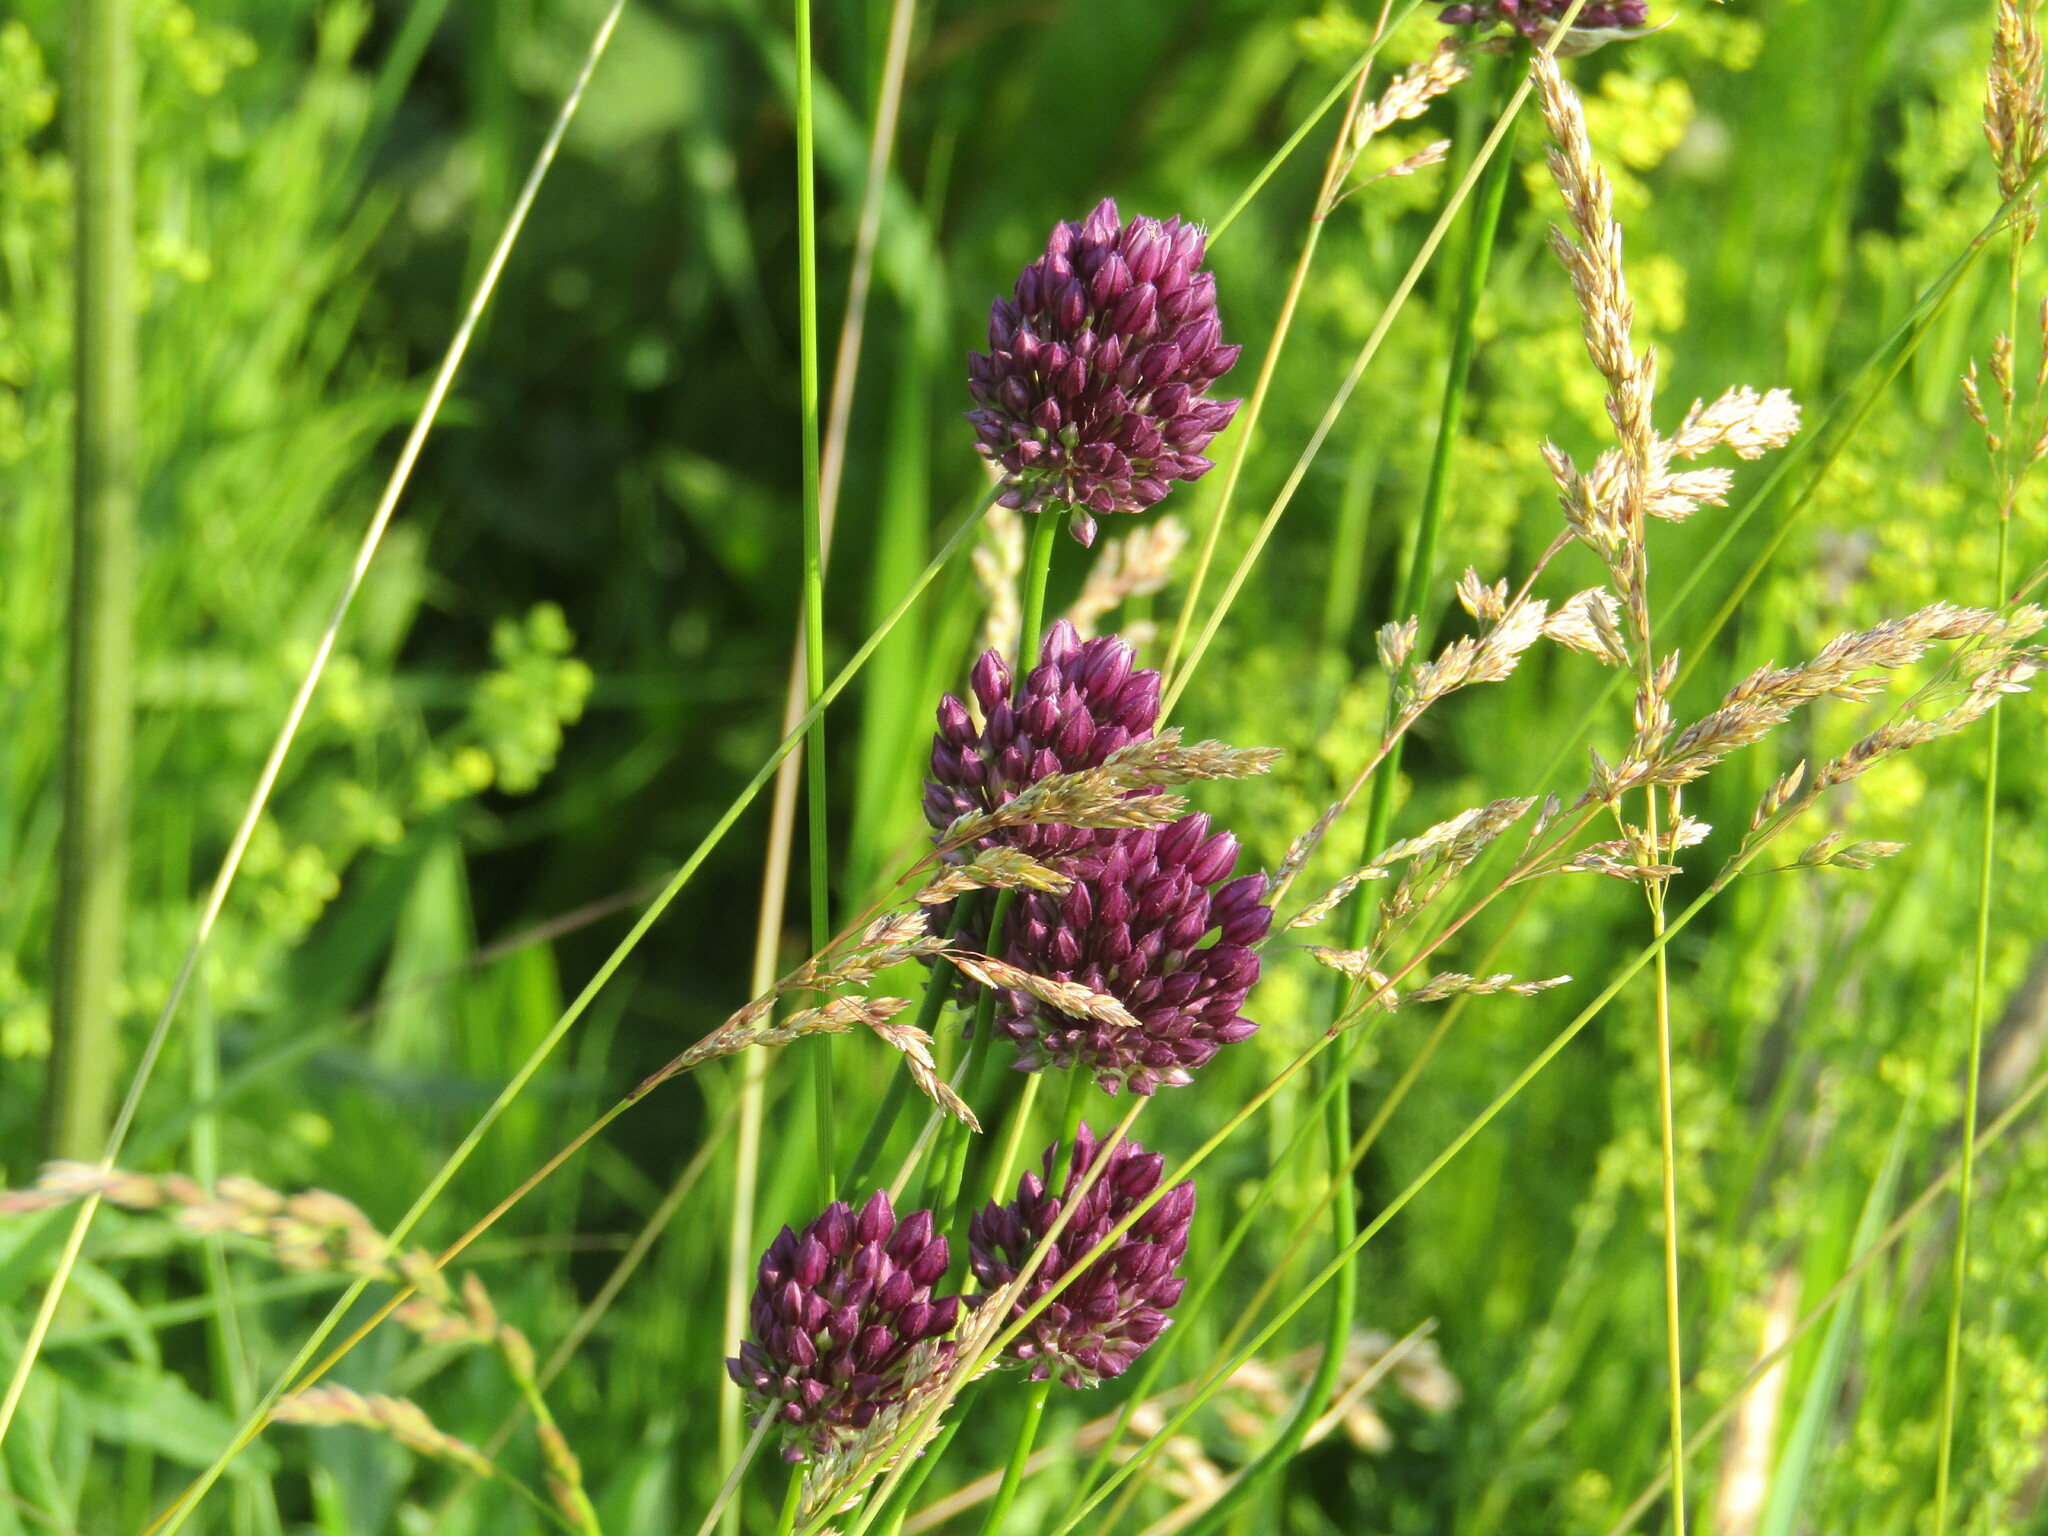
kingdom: Plantae
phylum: Tracheophyta
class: Liliopsida
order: Asparagales
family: Amaryllidaceae
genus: Allium
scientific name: Allium rotundum
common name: Sand leek
